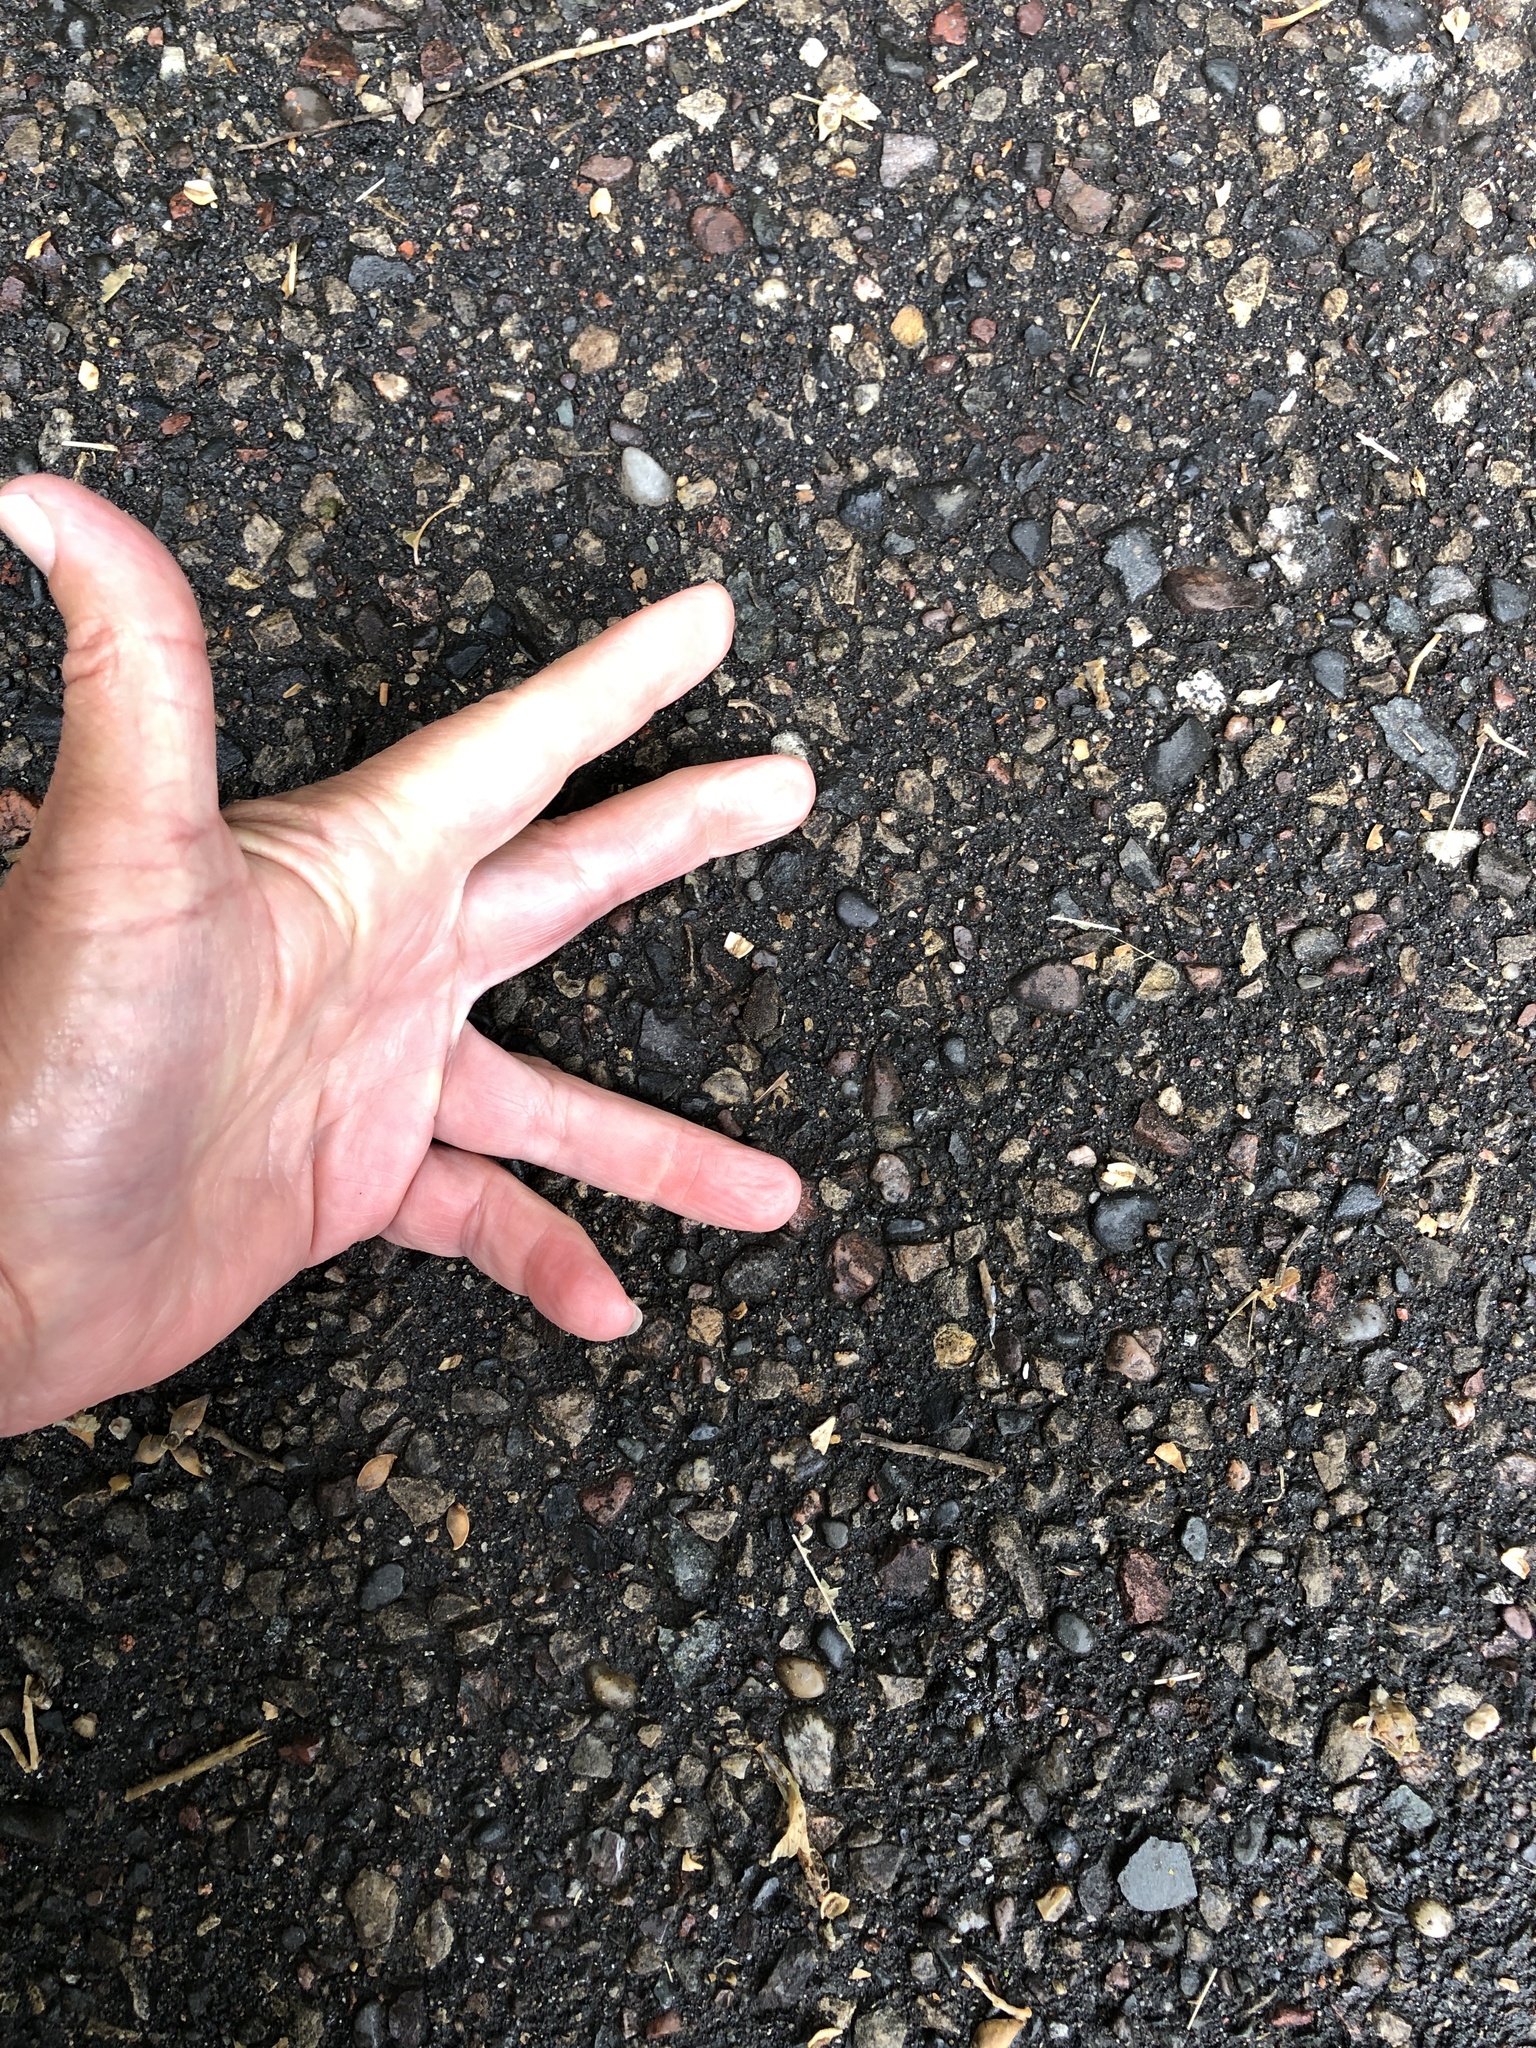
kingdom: Animalia
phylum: Chordata
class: Amphibia
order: Anura
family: Bufonidae
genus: Anaxyrus
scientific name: Anaxyrus americanus
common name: American toad
